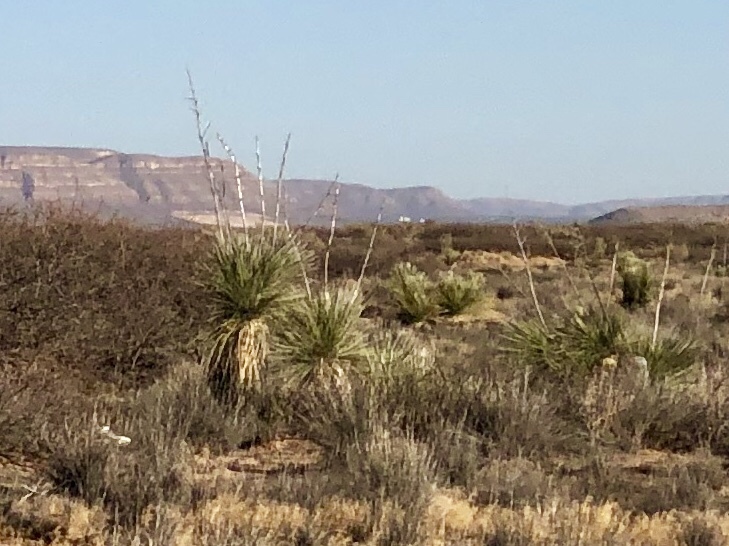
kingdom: Plantae
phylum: Tracheophyta
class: Liliopsida
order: Asparagales
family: Asparagaceae
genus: Yucca
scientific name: Yucca elata
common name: Palmella
